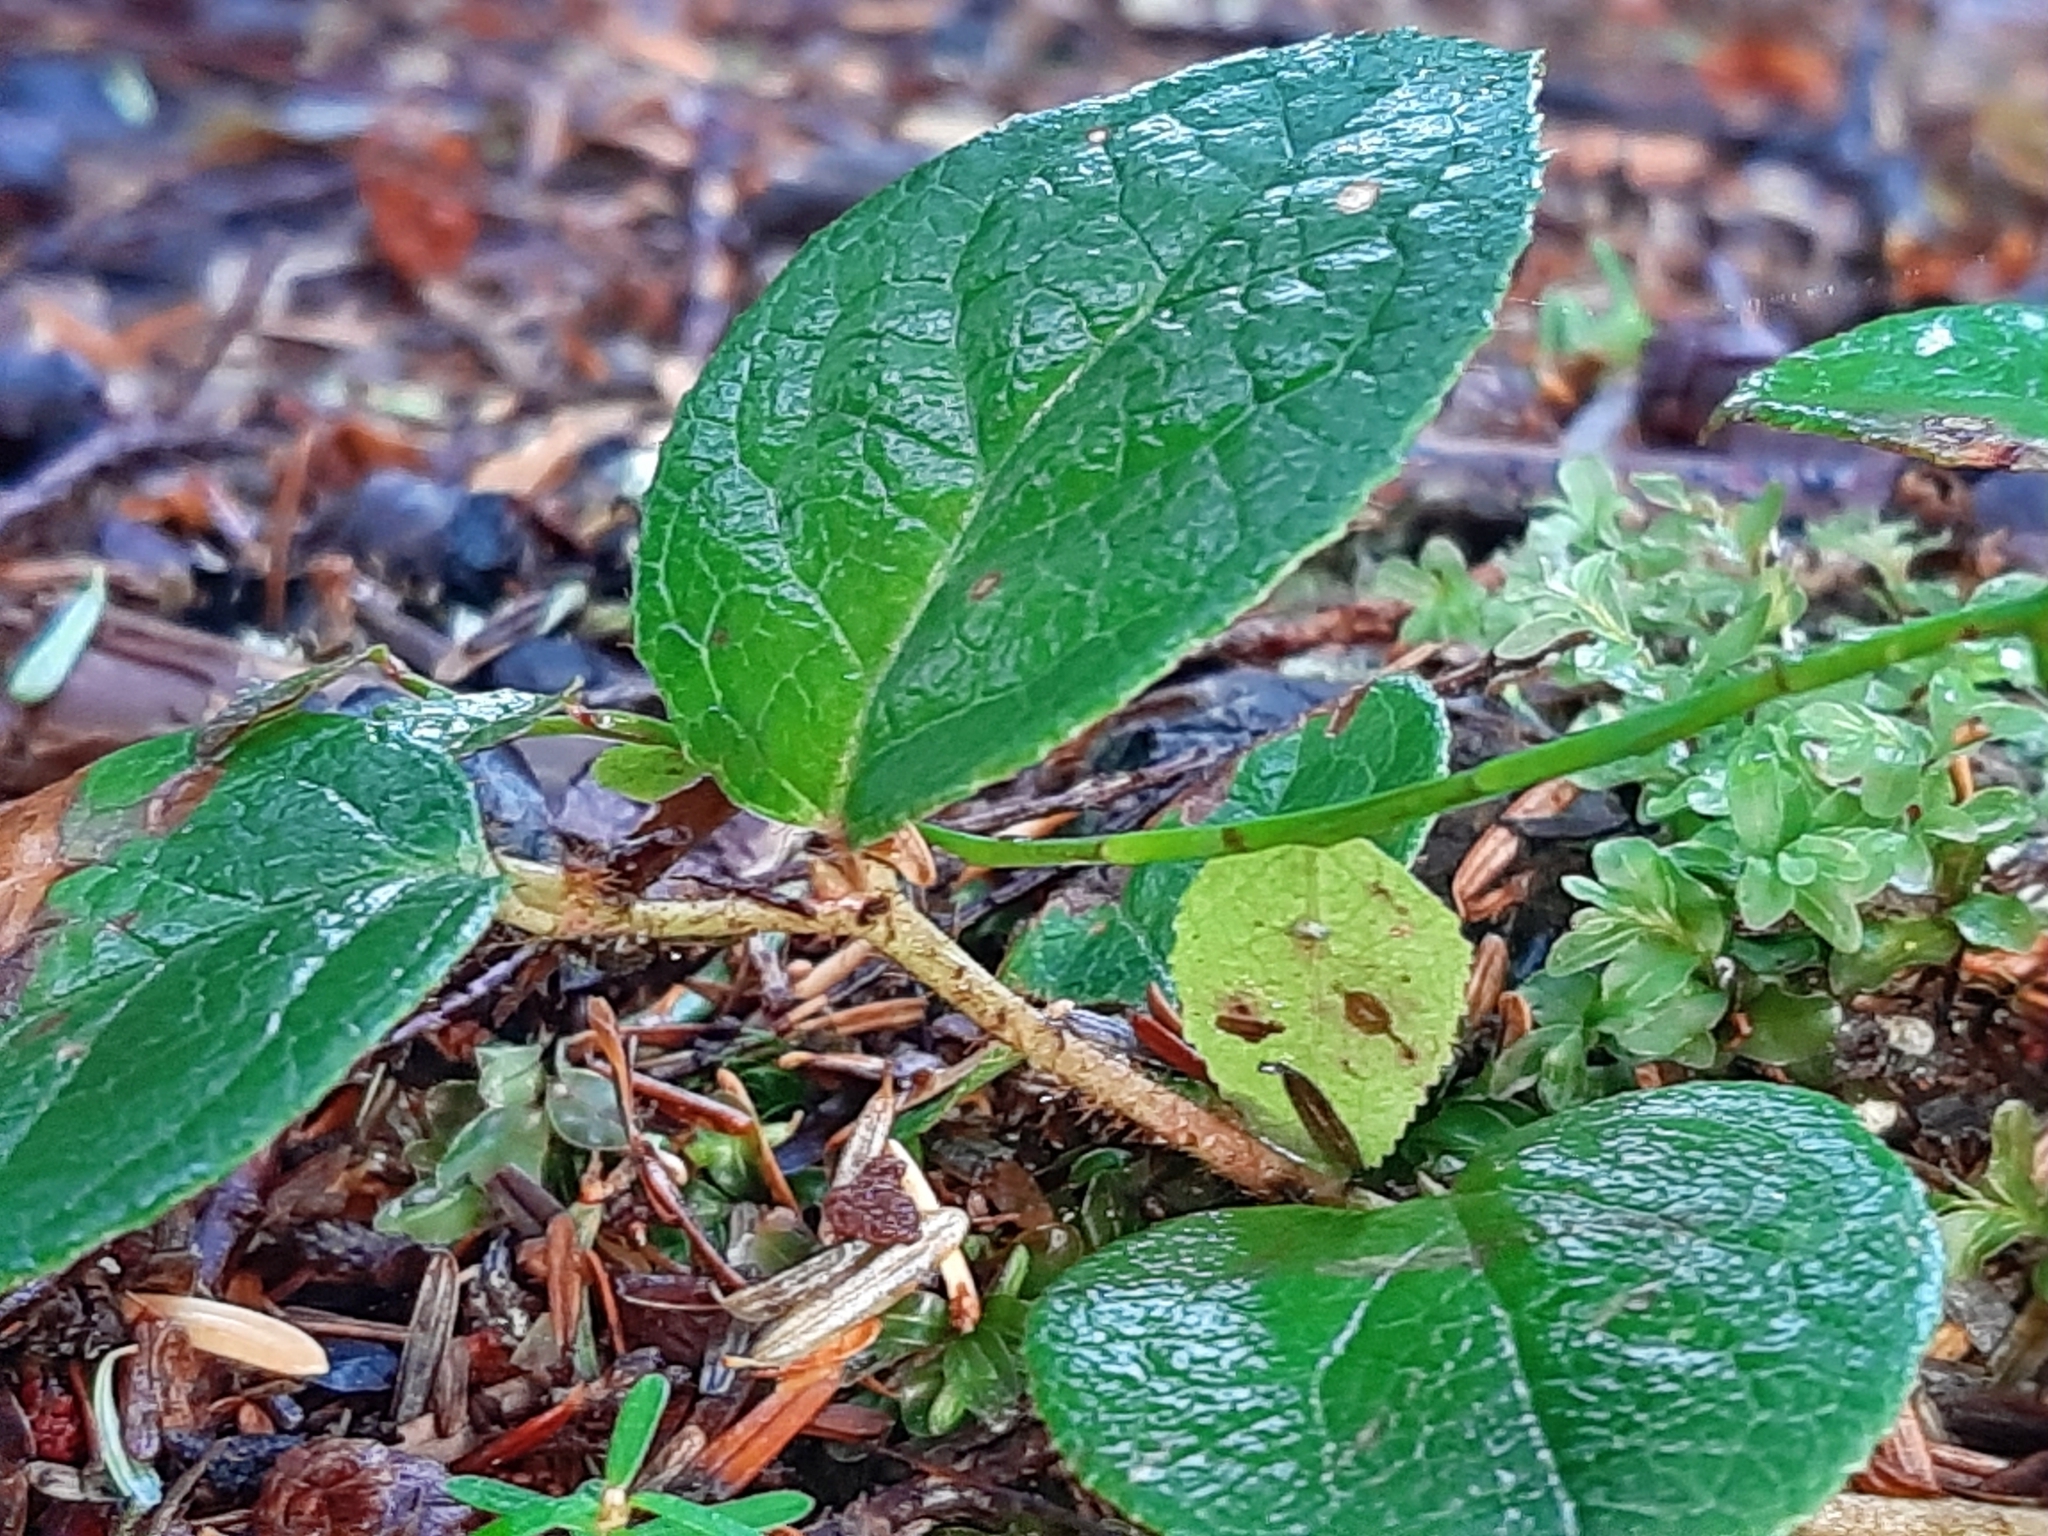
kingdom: Plantae
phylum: Tracheophyta
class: Magnoliopsida
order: Ericales
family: Ericaceae
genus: Gaultheria
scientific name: Gaultheria shallon
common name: Shallon
